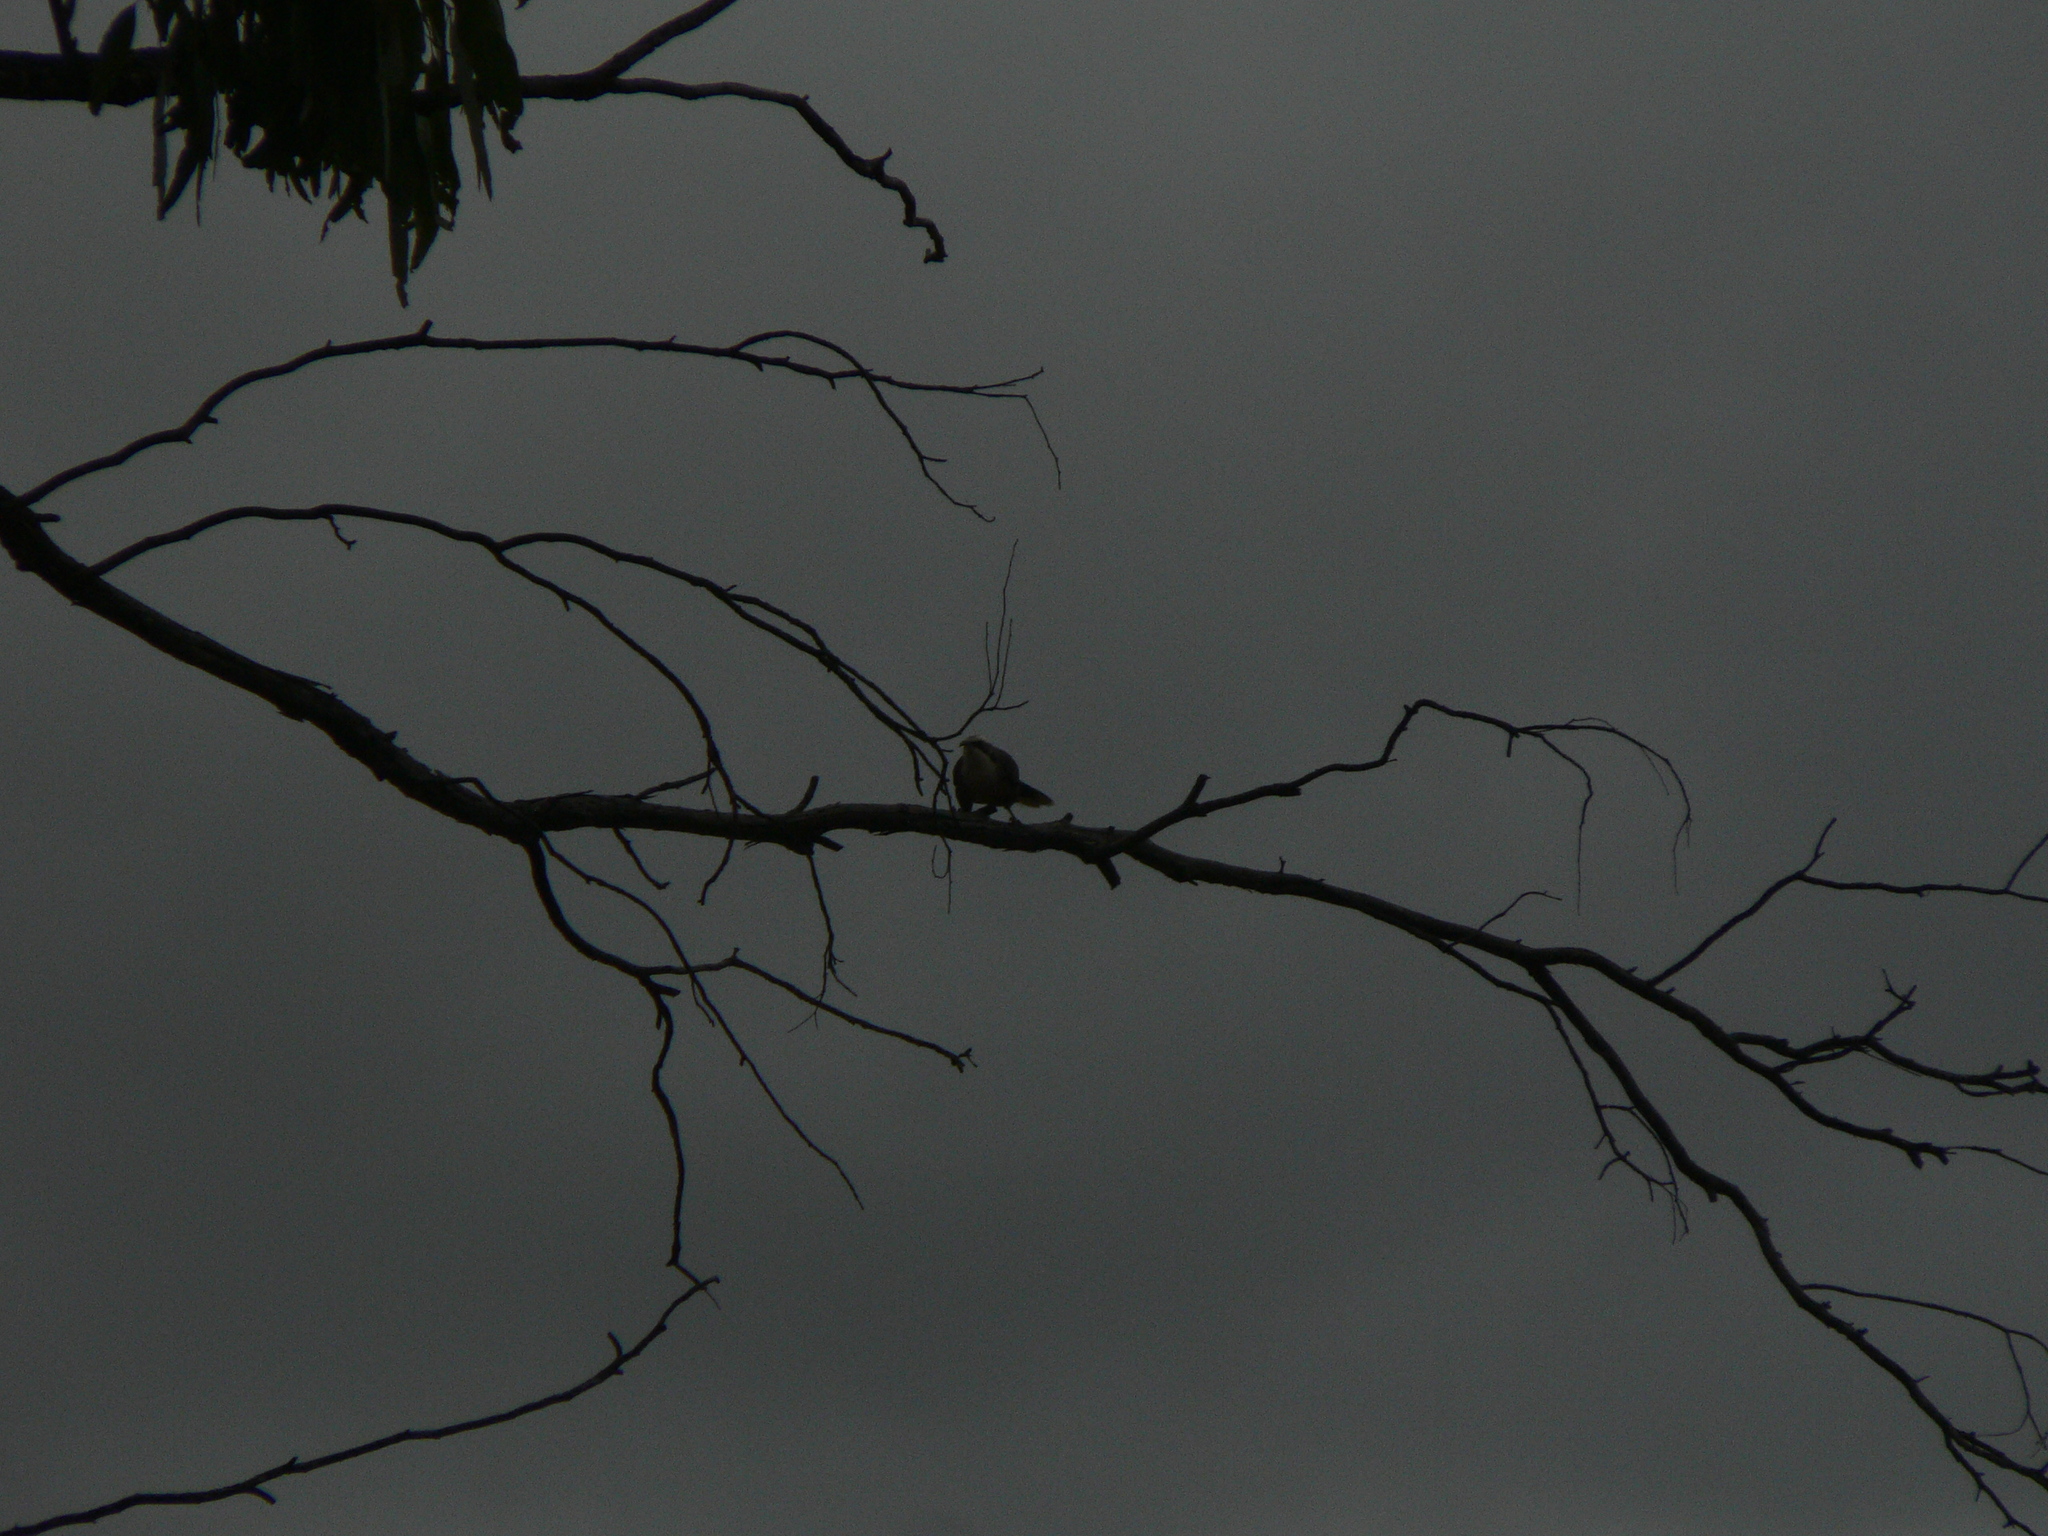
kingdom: Animalia
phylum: Chordata
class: Aves
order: Passeriformes
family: Pomatostomidae
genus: Pomatostomus
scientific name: Pomatostomus temporalis
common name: Grey-crowned babbler
